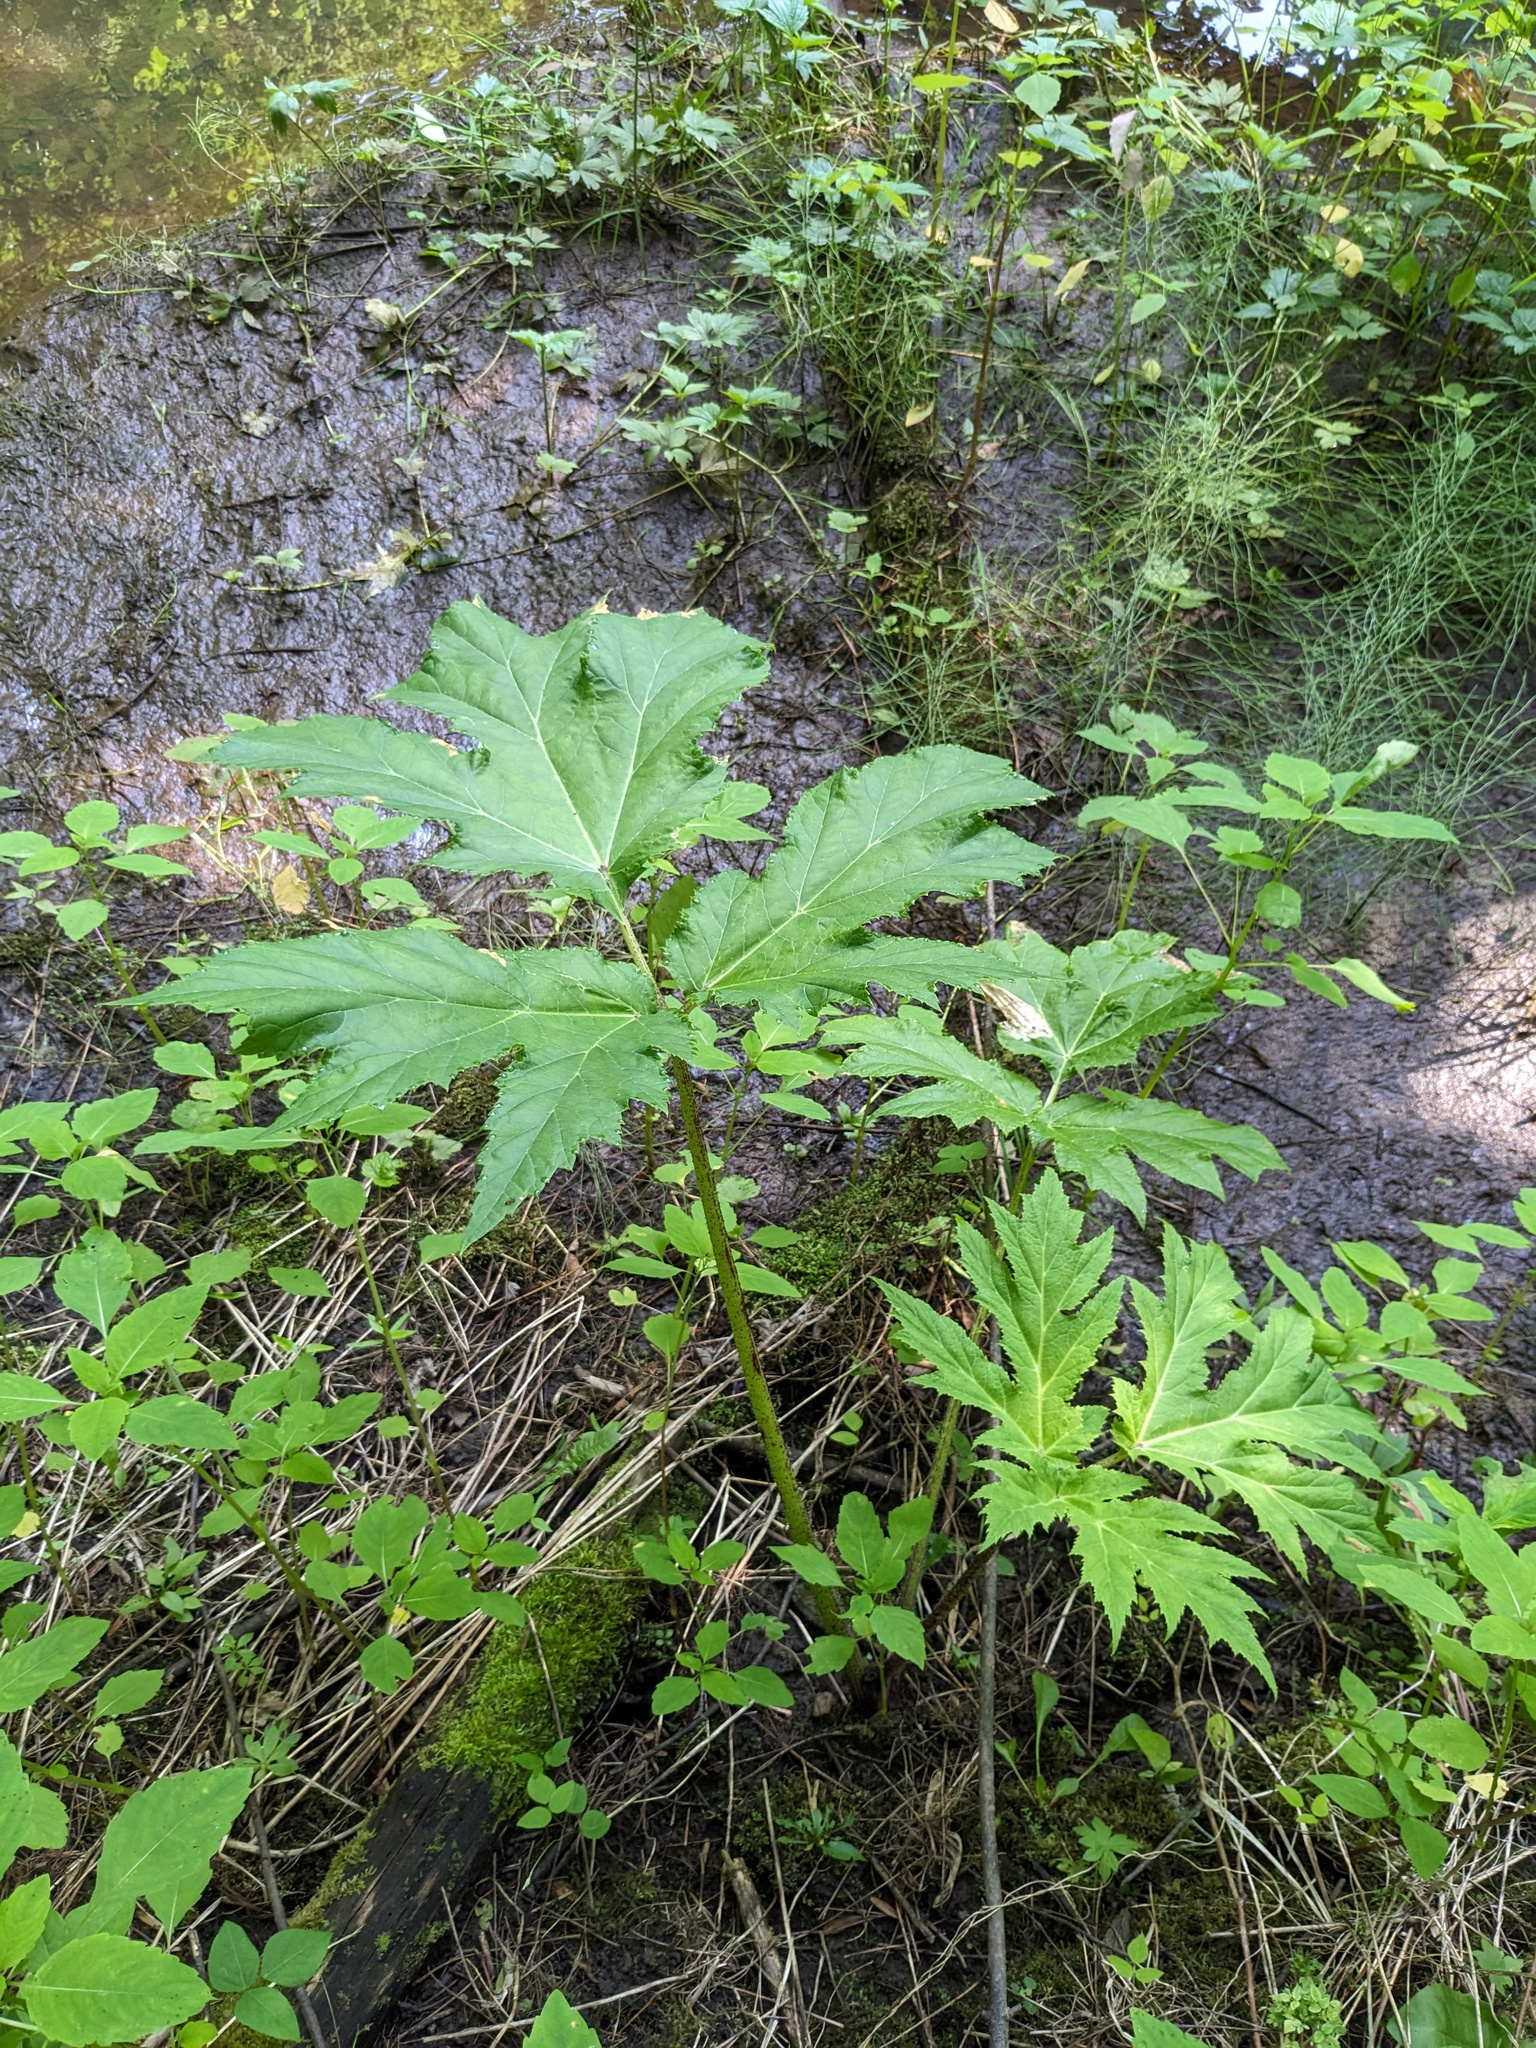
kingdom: Plantae
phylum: Tracheophyta
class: Magnoliopsida
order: Apiales
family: Apiaceae
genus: Heracleum
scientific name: Heracleum mantegazzianum
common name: Giant hogweed
